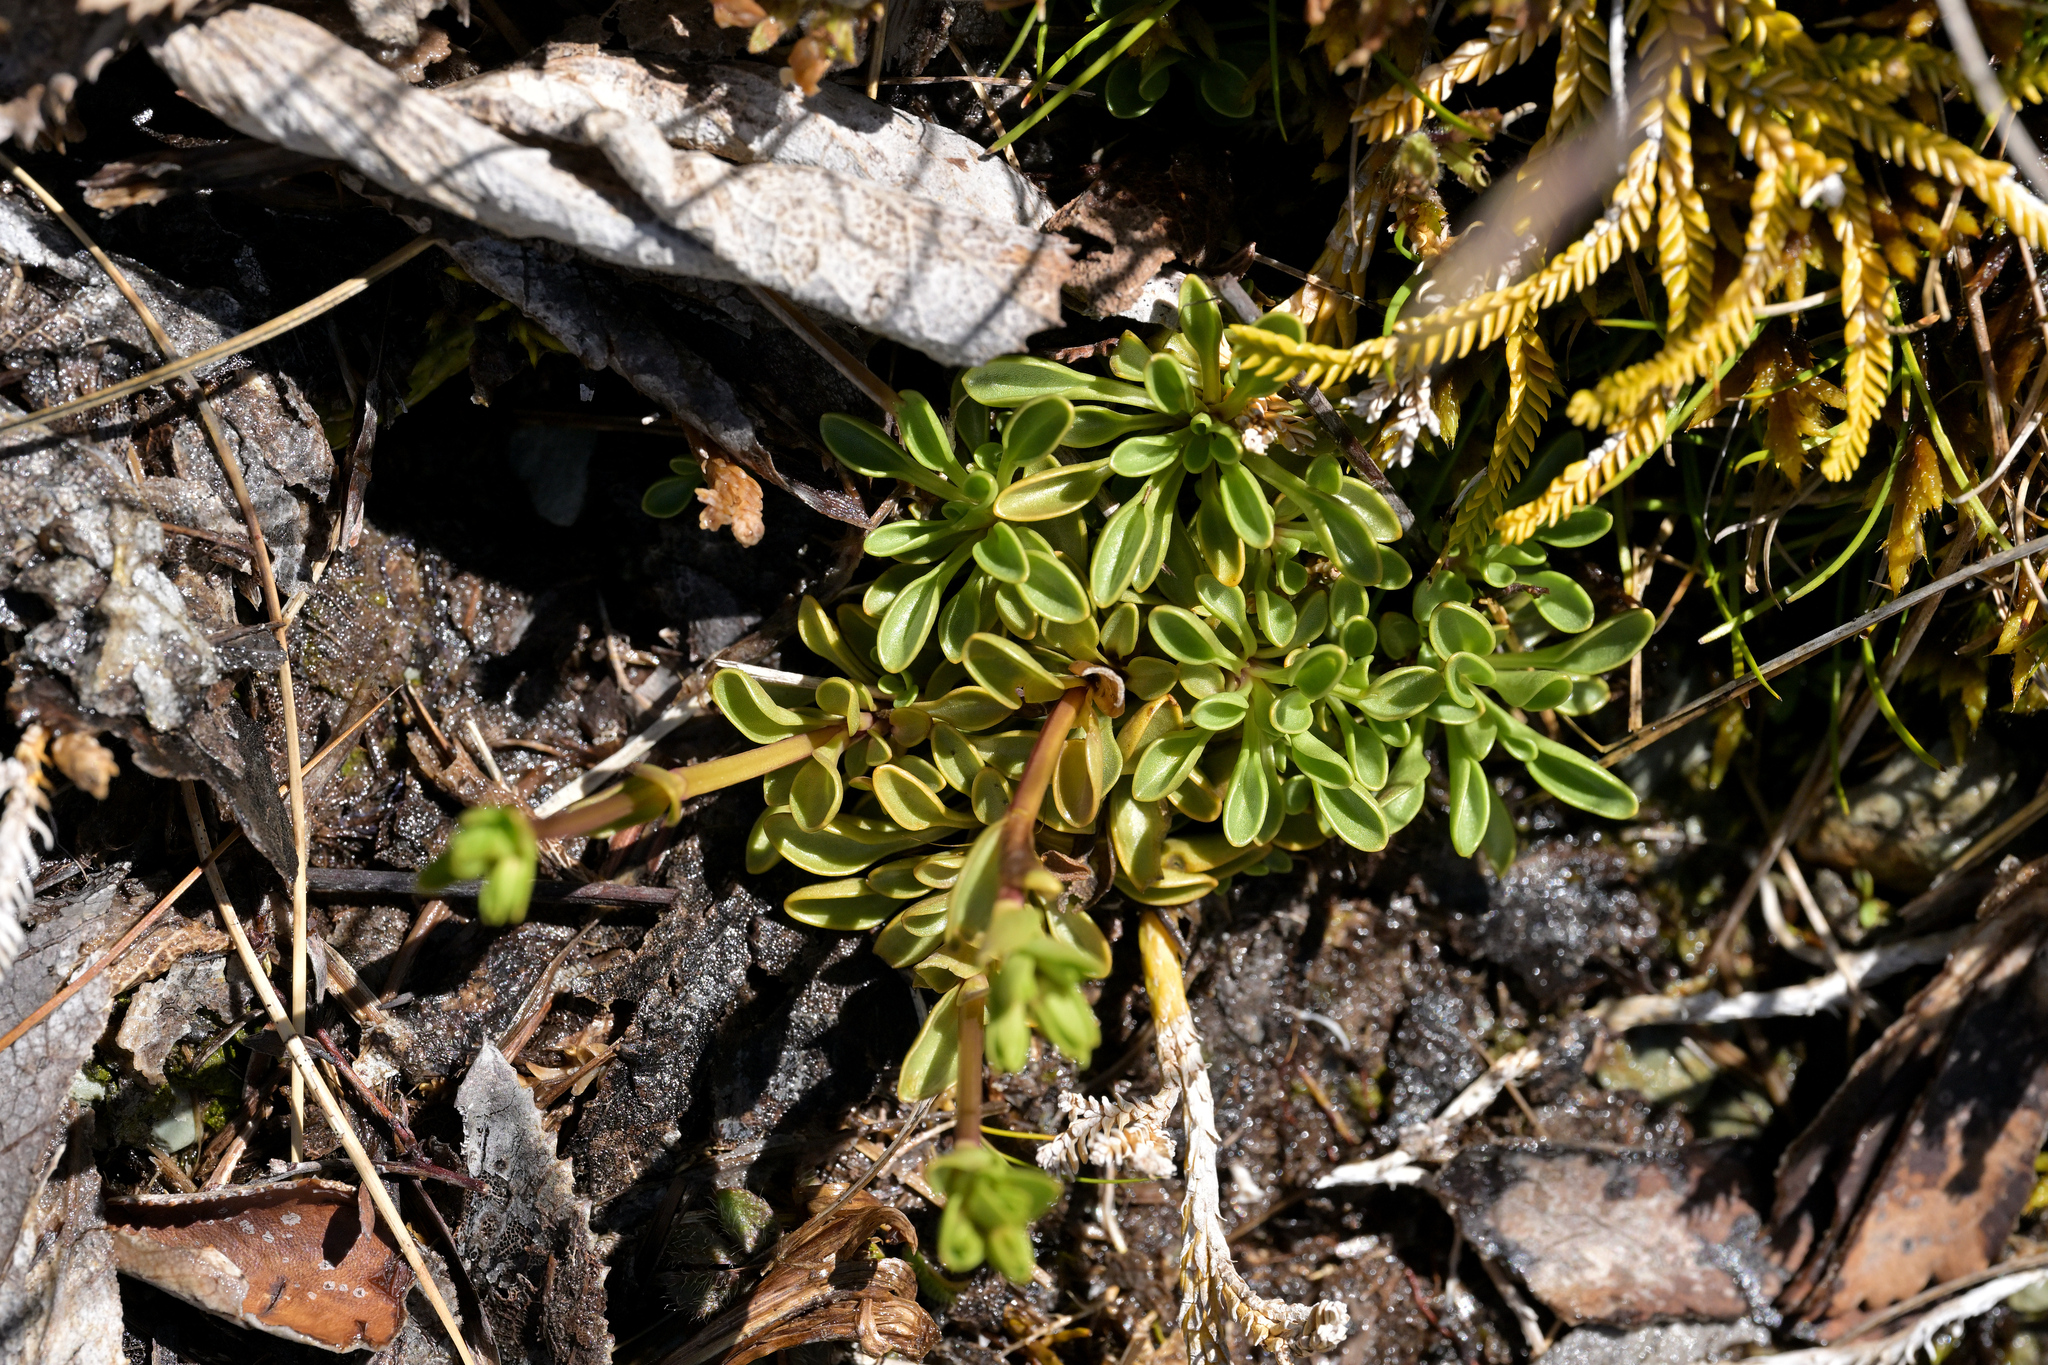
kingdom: Plantae
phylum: Tracheophyta
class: Magnoliopsida
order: Gentianales
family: Gentianaceae
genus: Gentianella
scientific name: Gentianella bellidifolia
